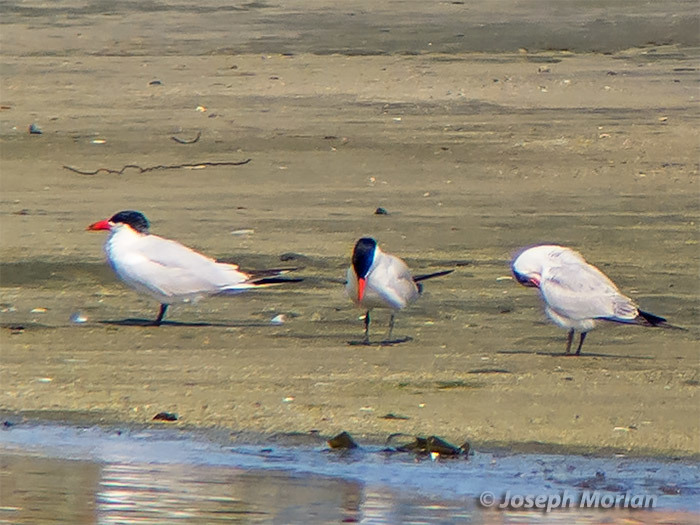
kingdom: Animalia
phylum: Chordata
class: Aves
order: Charadriiformes
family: Laridae
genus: Hydroprogne
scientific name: Hydroprogne caspia
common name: Caspian tern
